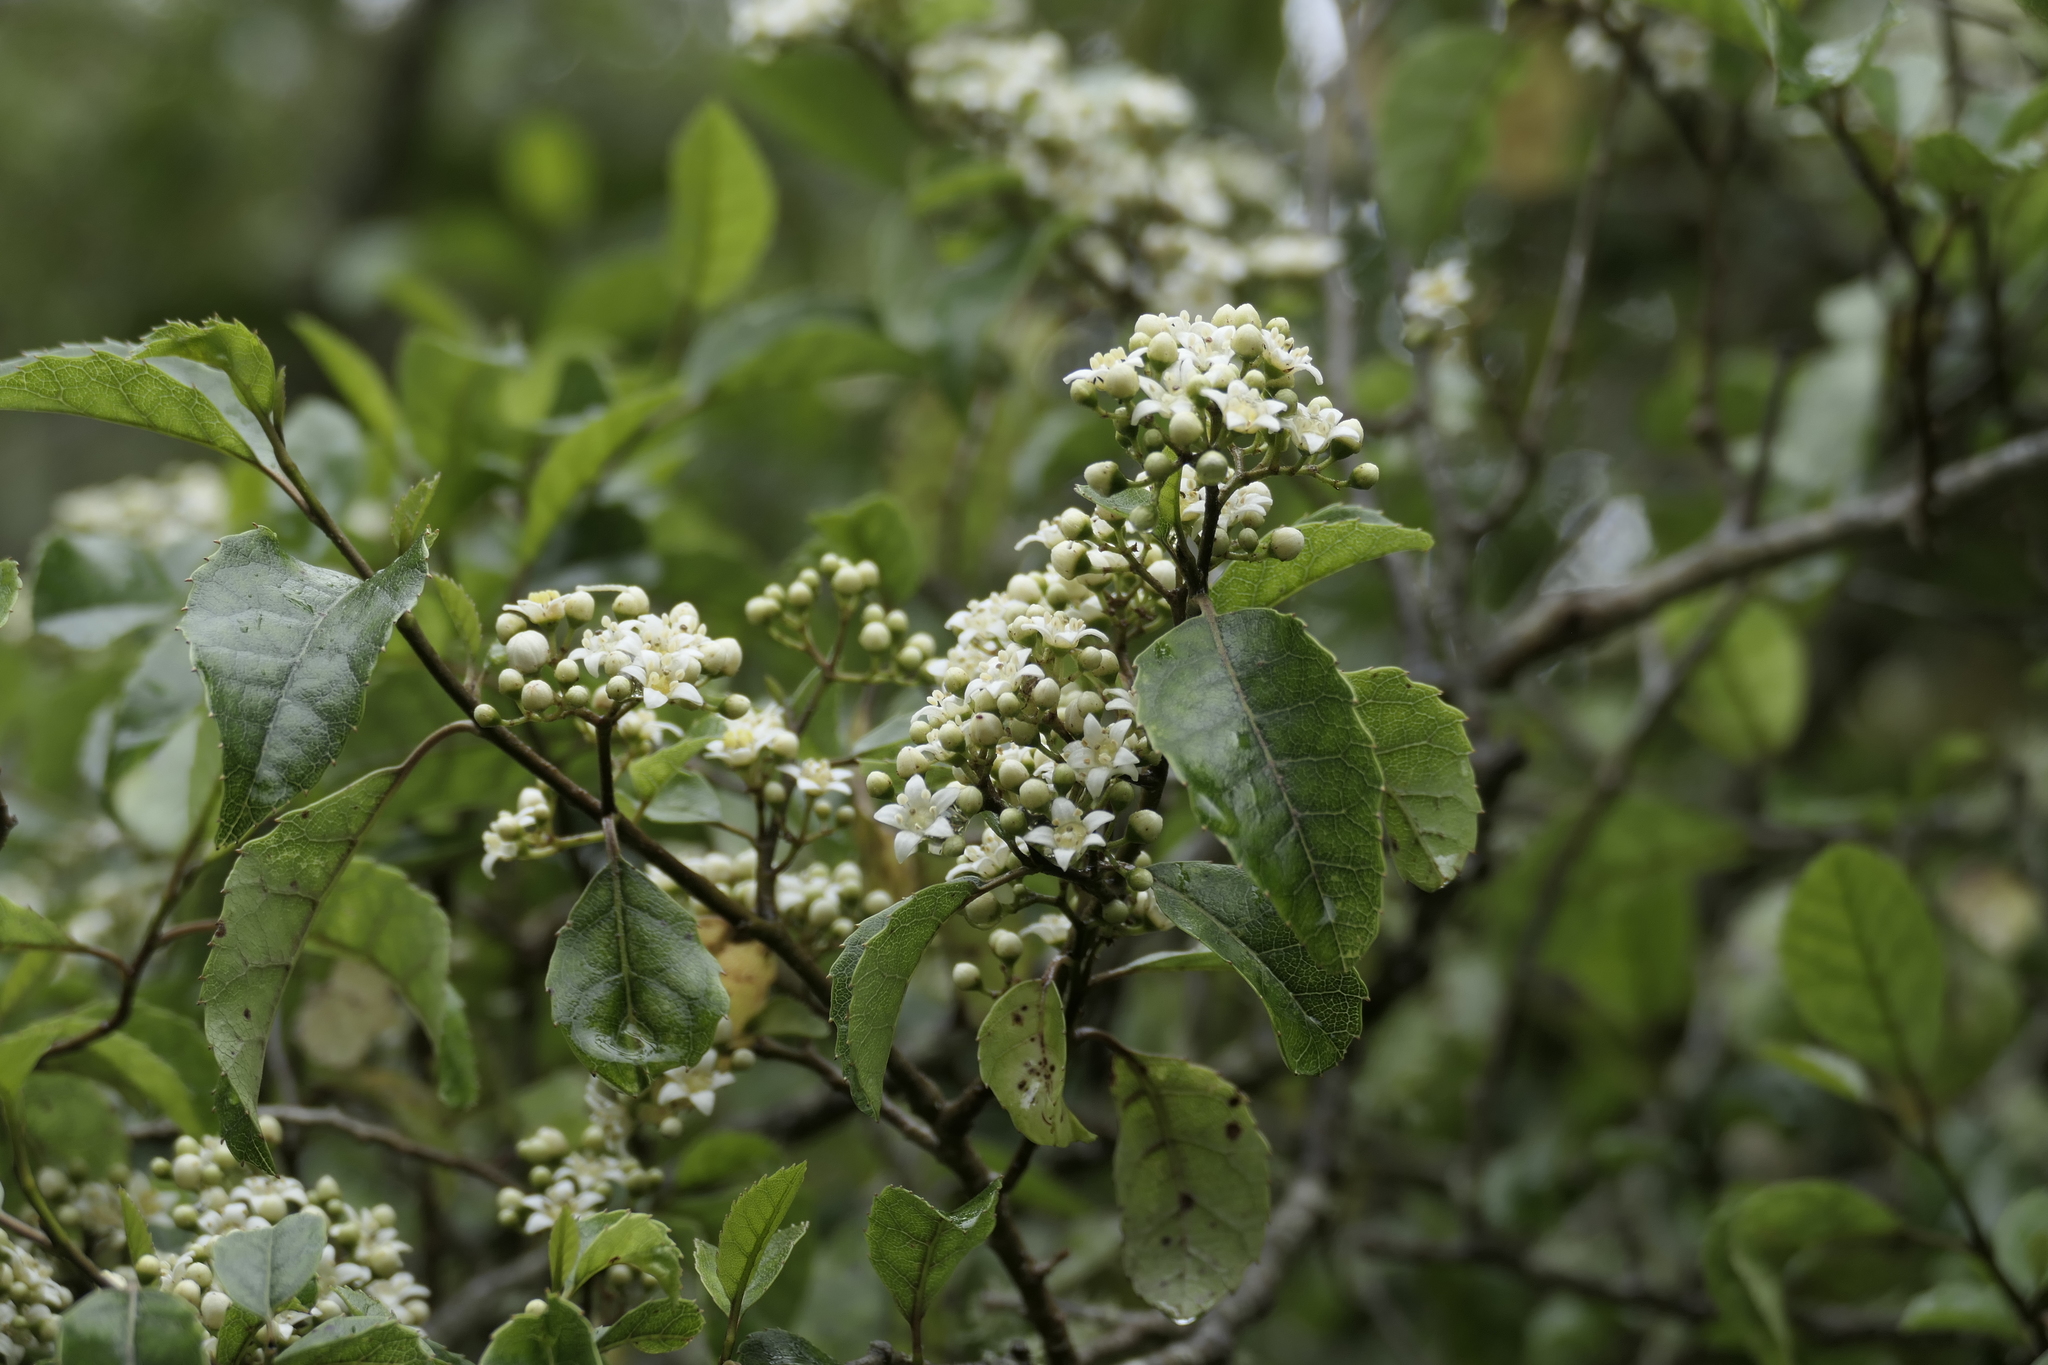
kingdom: Plantae
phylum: Tracheophyta
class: Magnoliopsida
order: Asterales
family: Rousseaceae
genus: Carpodetus
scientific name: Carpodetus serratus
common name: White mapau
